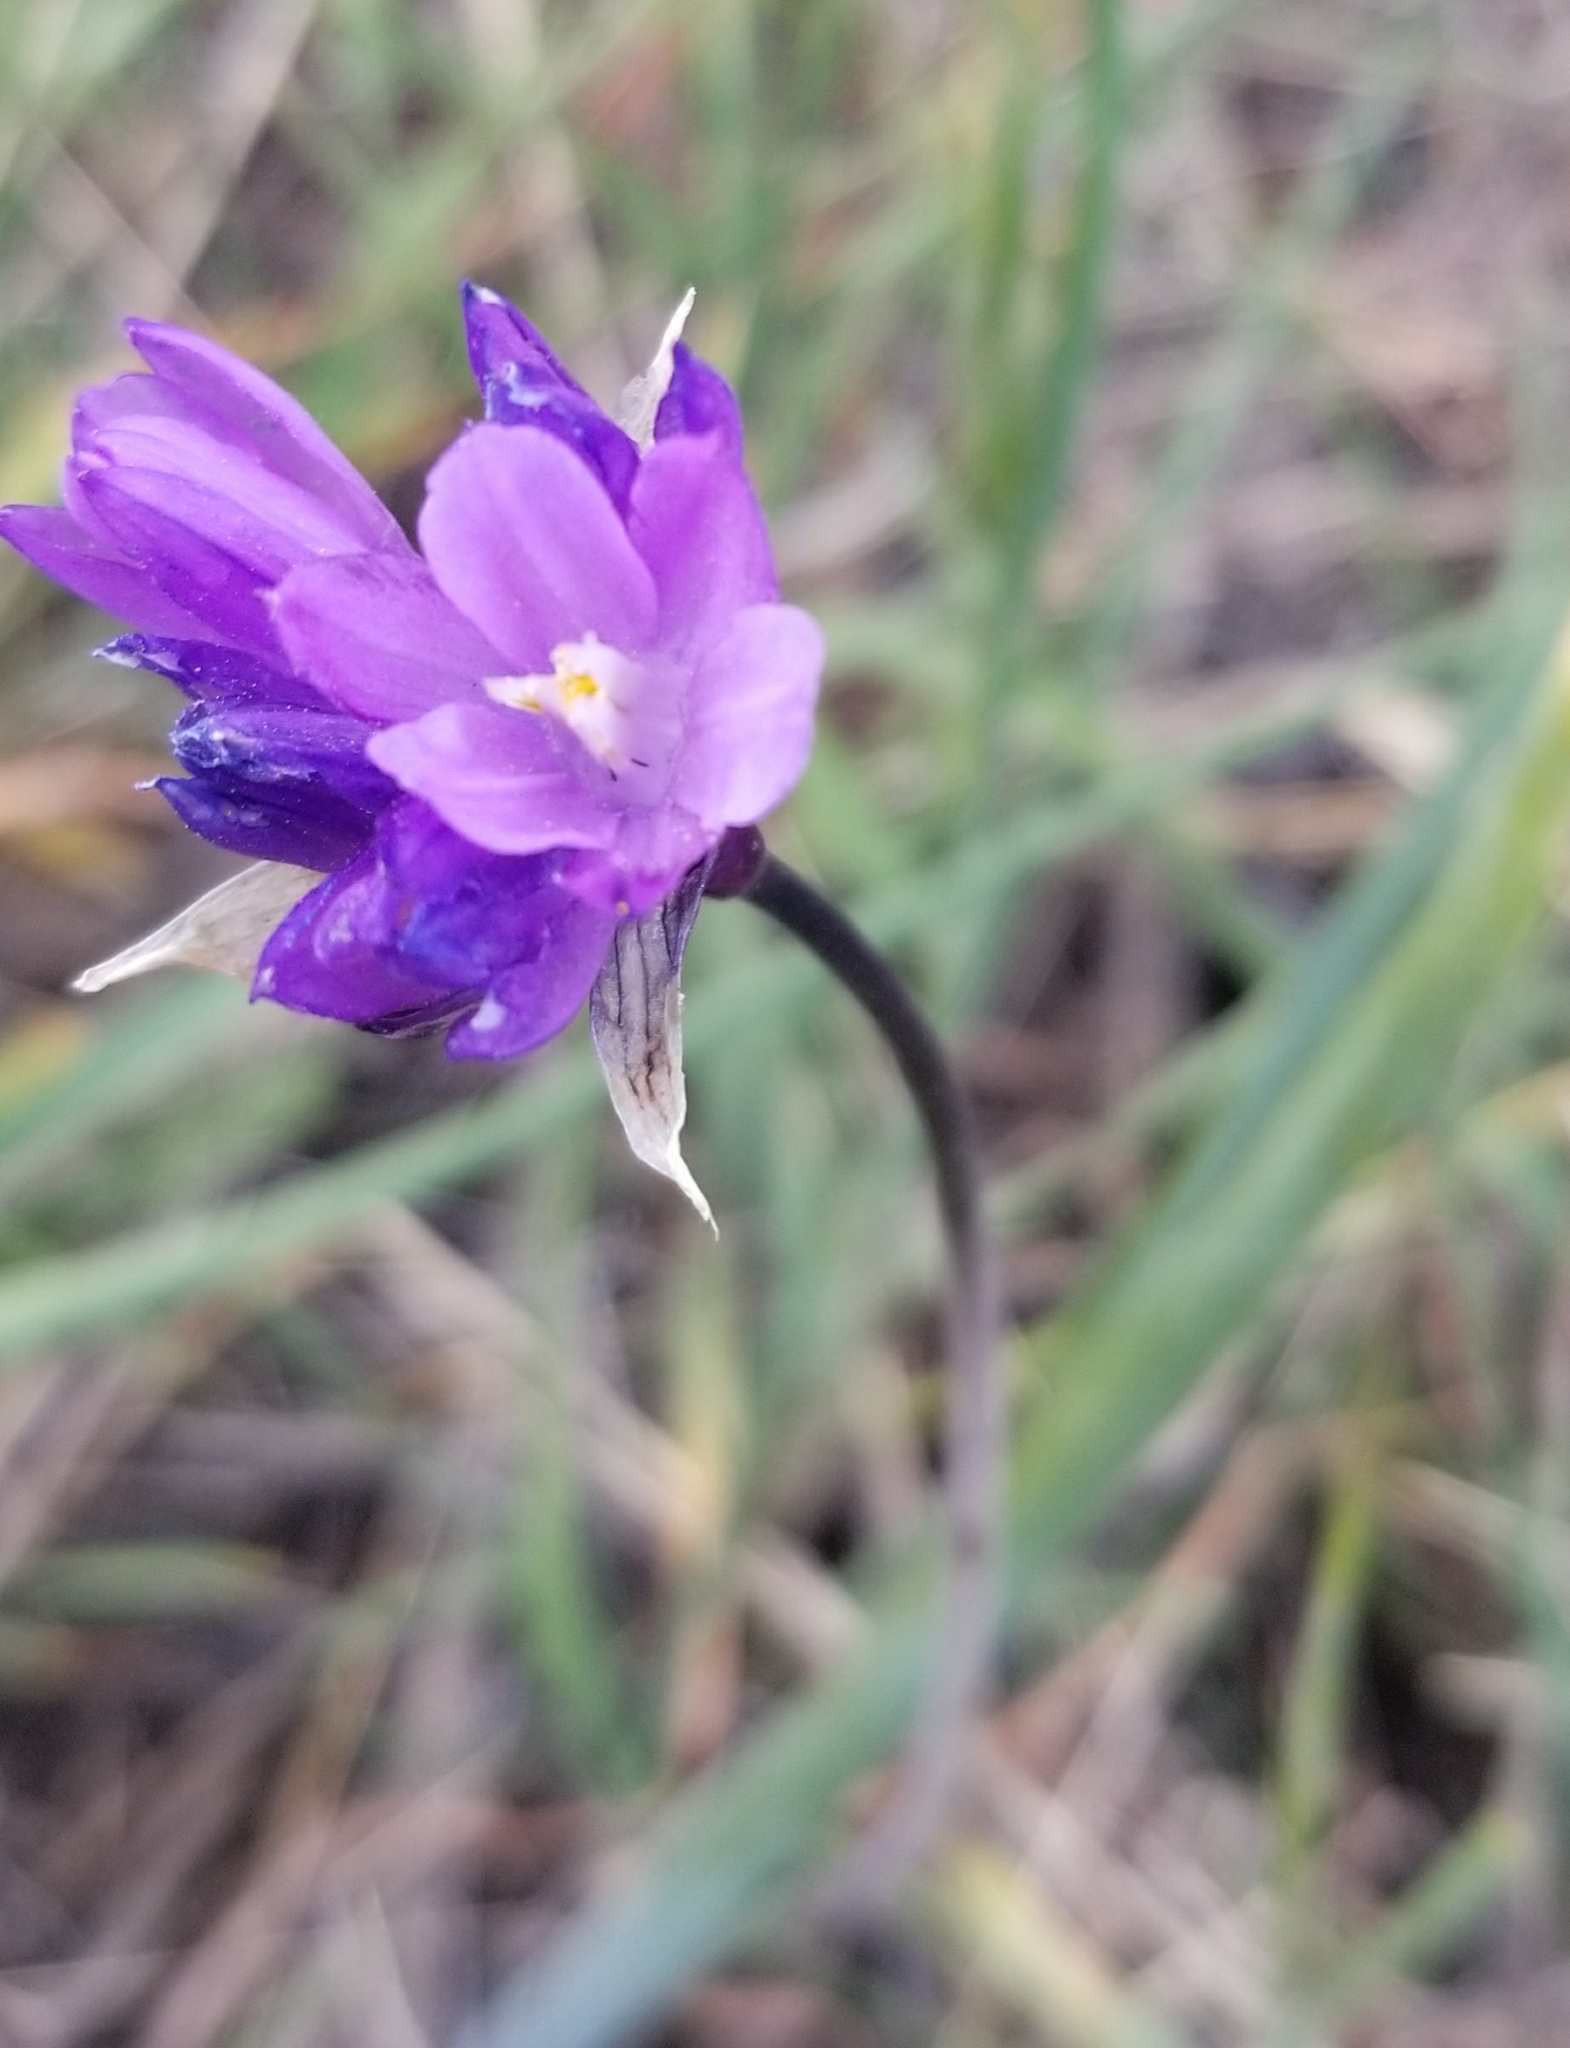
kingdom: Plantae
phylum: Tracheophyta
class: Liliopsida
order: Asparagales
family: Asparagaceae
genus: Dipterostemon
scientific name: Dipterostemon capitatus
